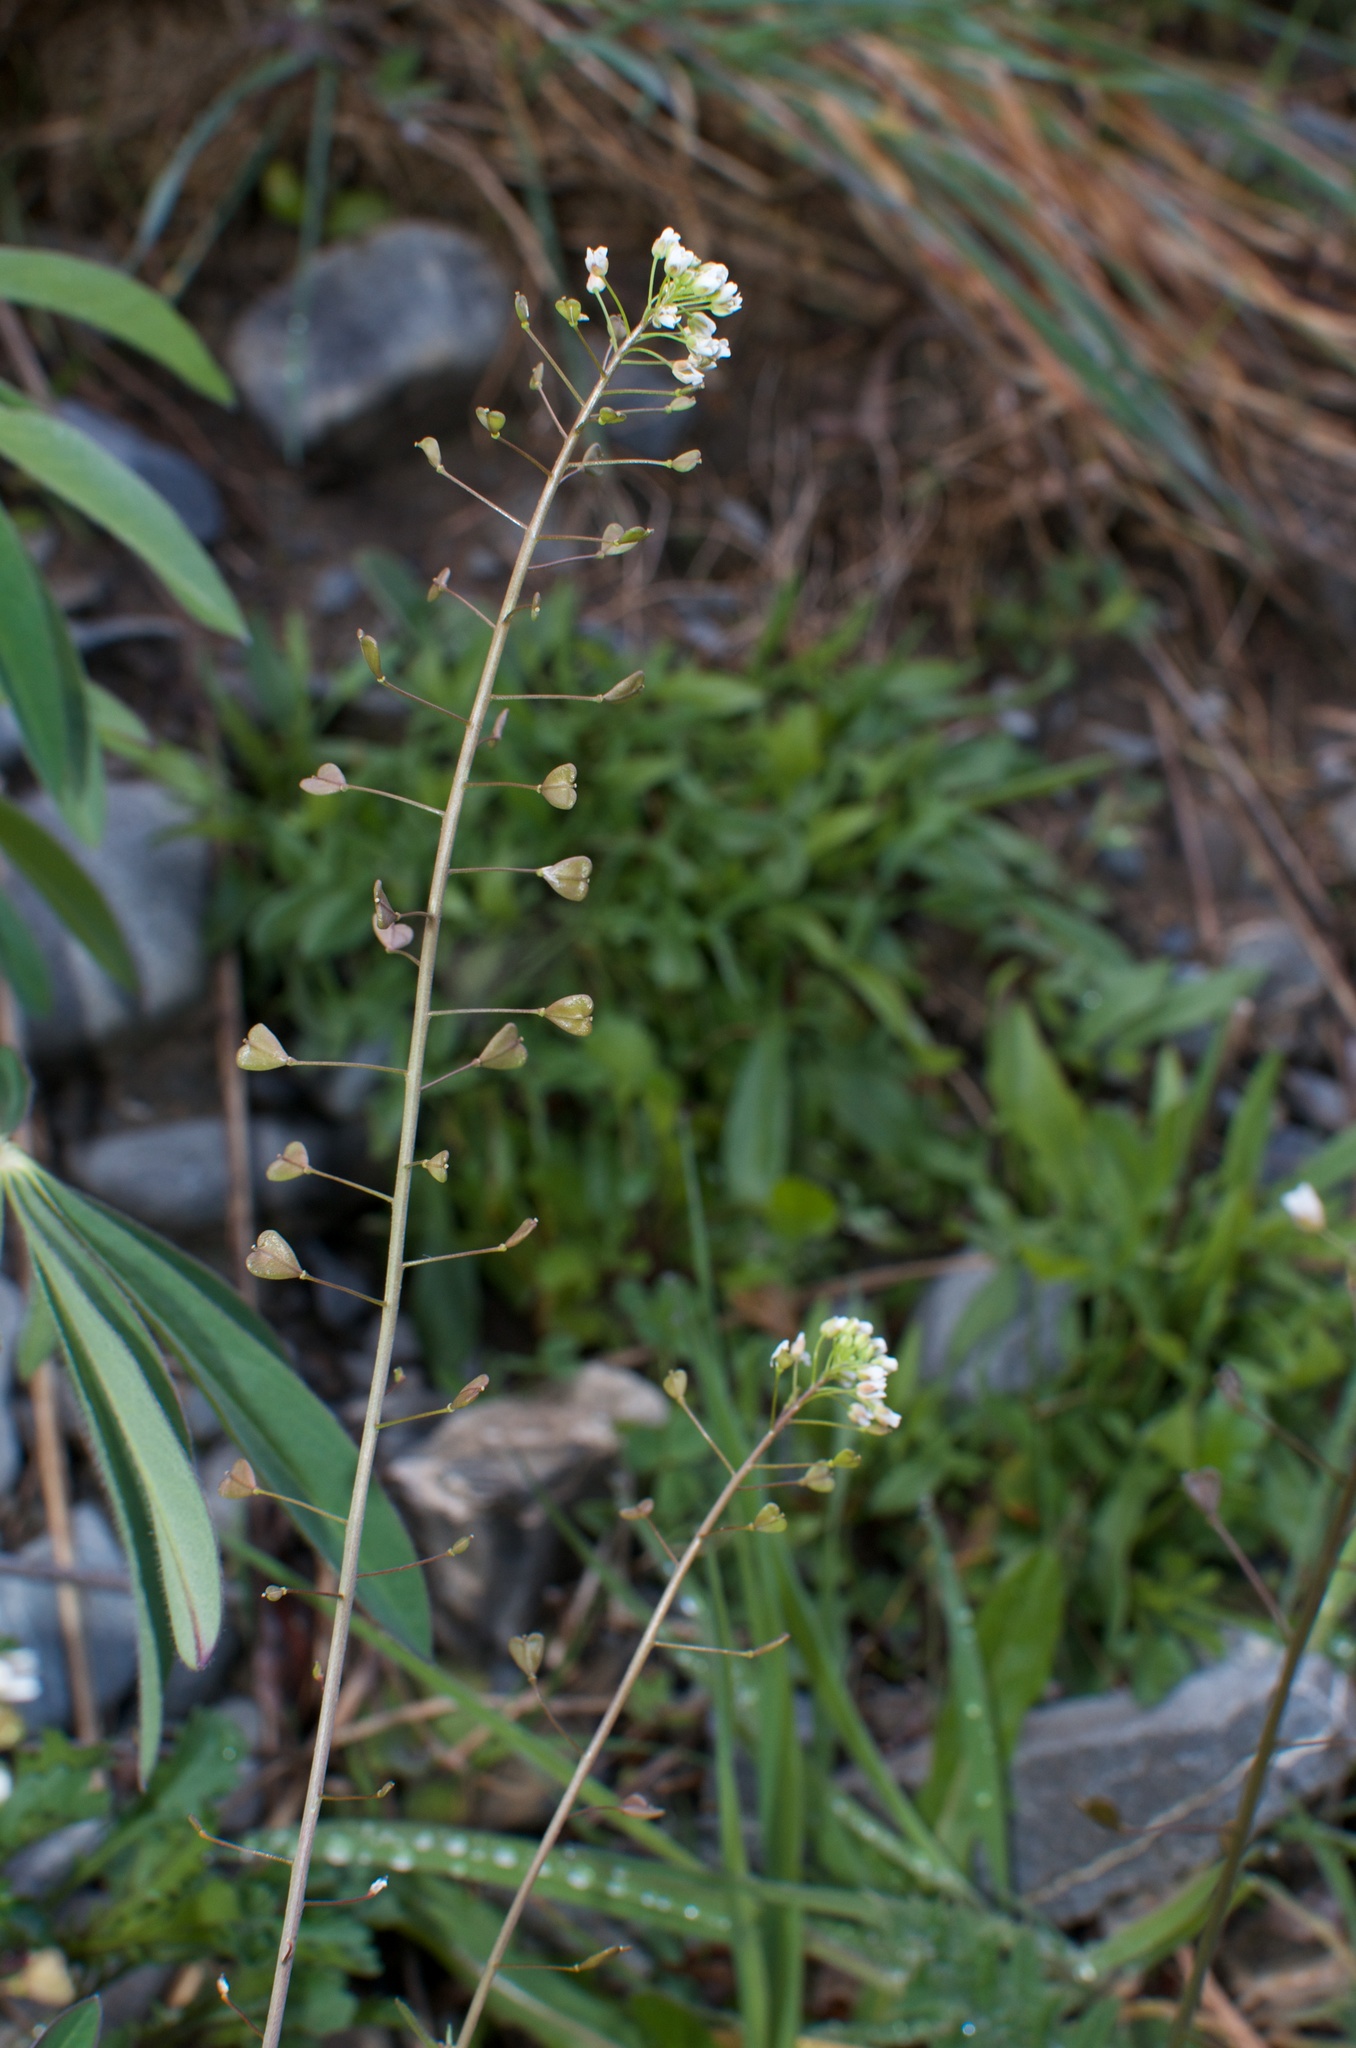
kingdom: Plantae
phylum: Tracheophyta
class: Magnoliopsida
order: Brassicales
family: Brassicaceae
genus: Capsella
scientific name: Capsella bursa-pastoris
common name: Shepherd's purse
